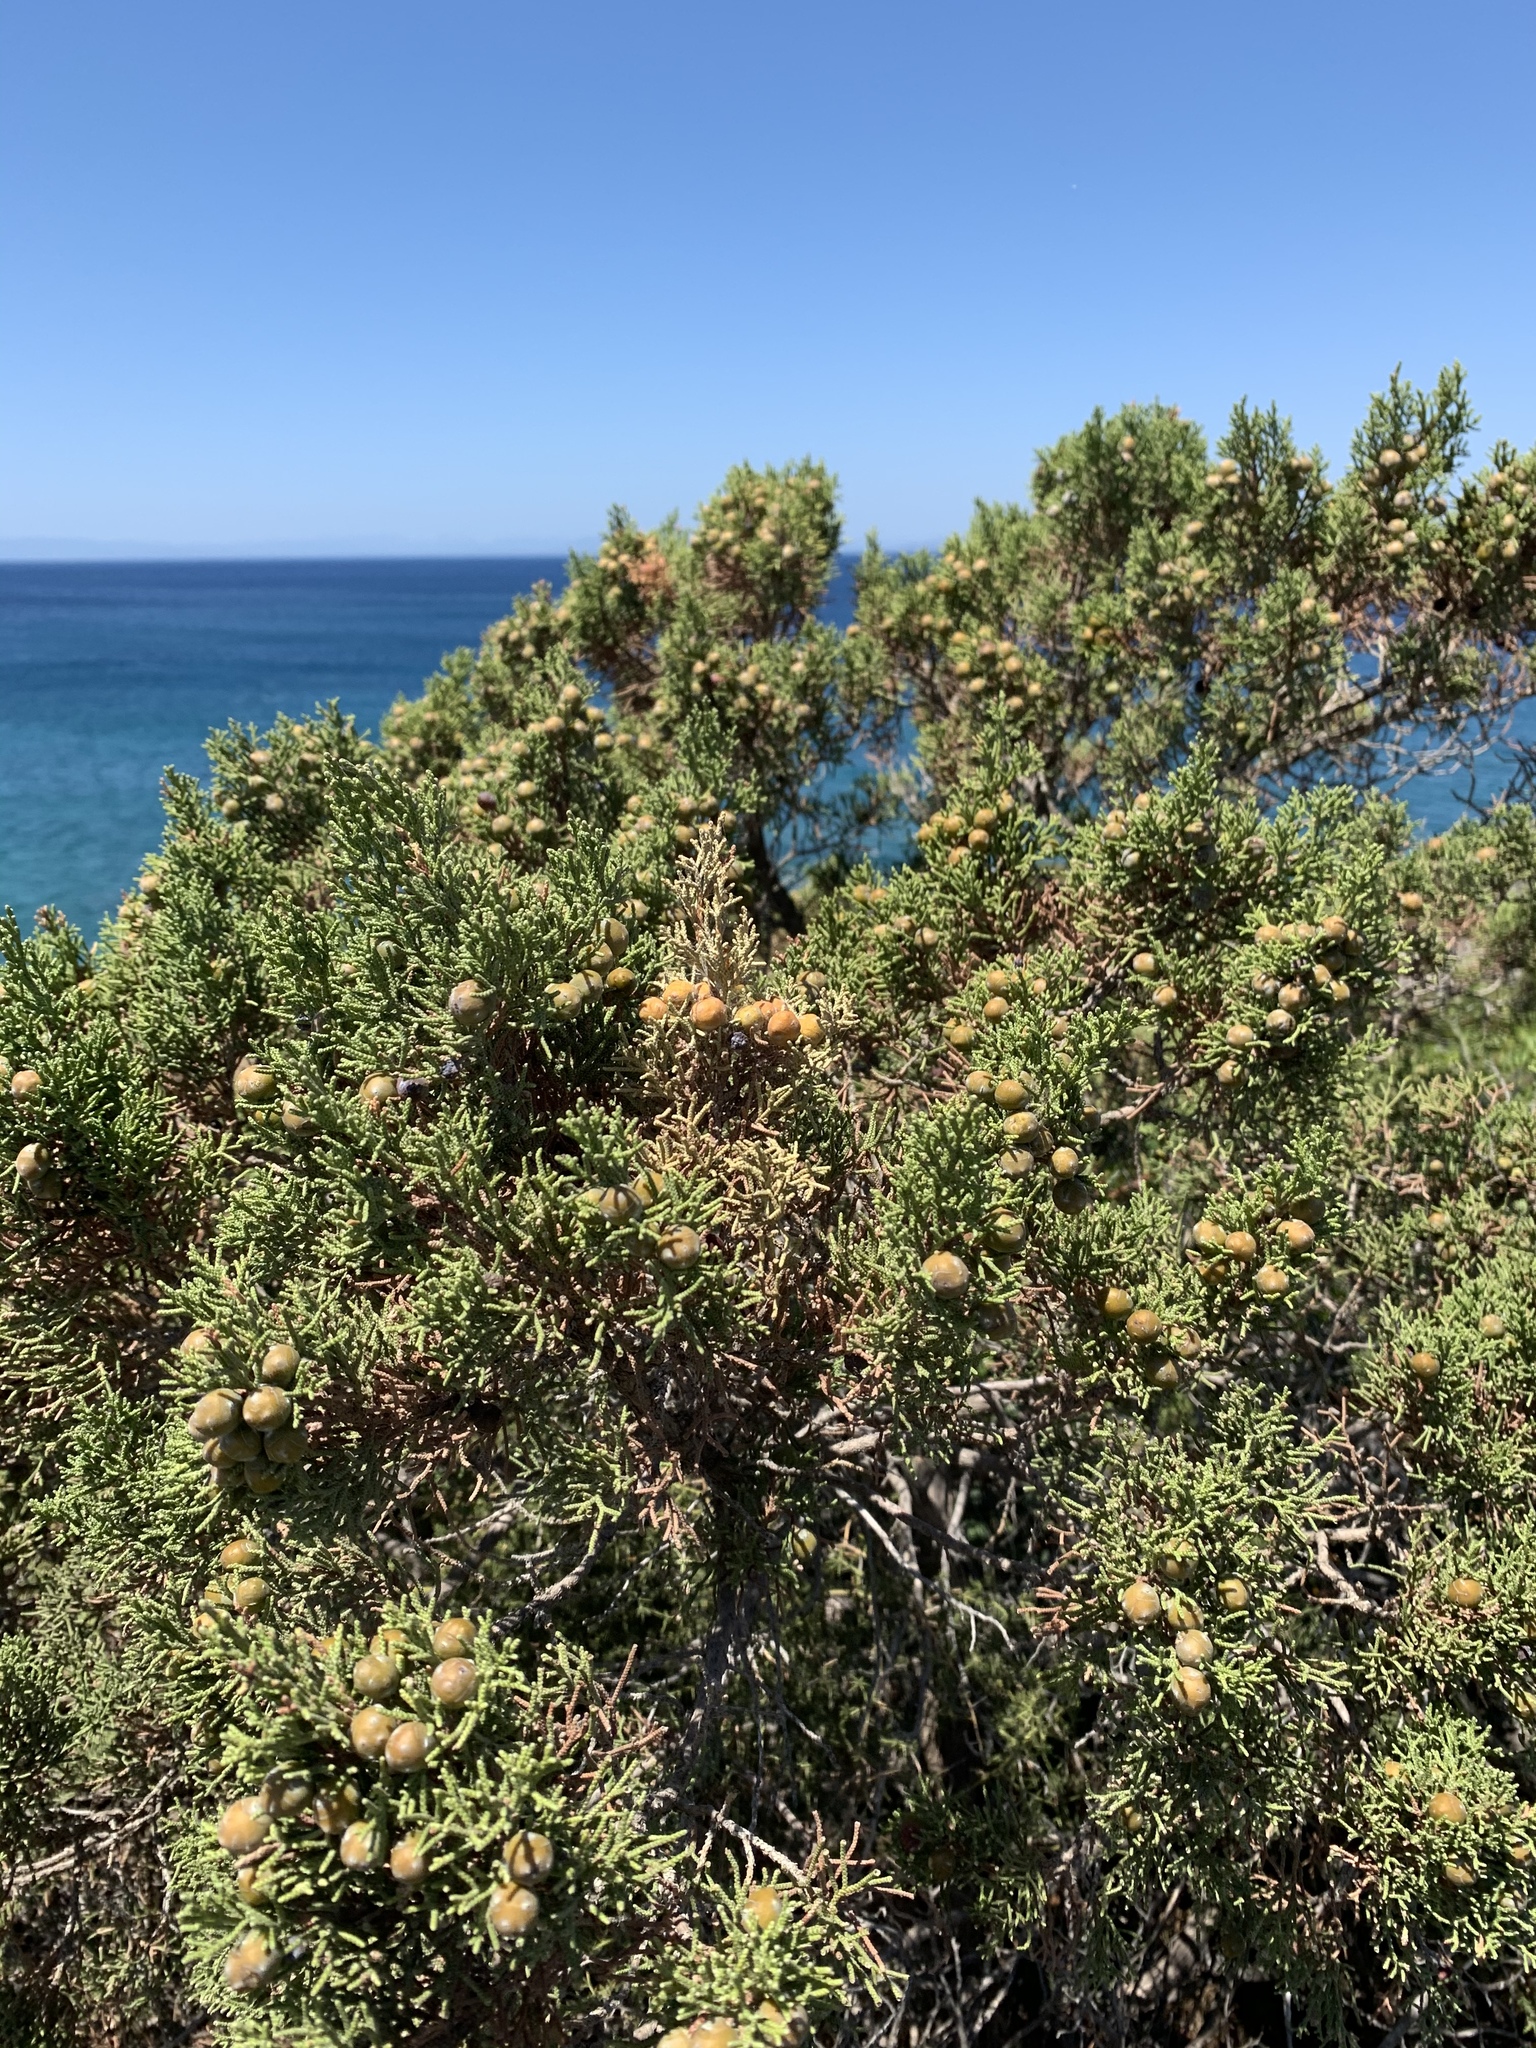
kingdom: Plantae
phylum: Tracheophyta
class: Pinopsida
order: Pinales
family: Cupressaceae
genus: Juniperus
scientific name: Juniperus phoenicea
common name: Phoenician juniper
